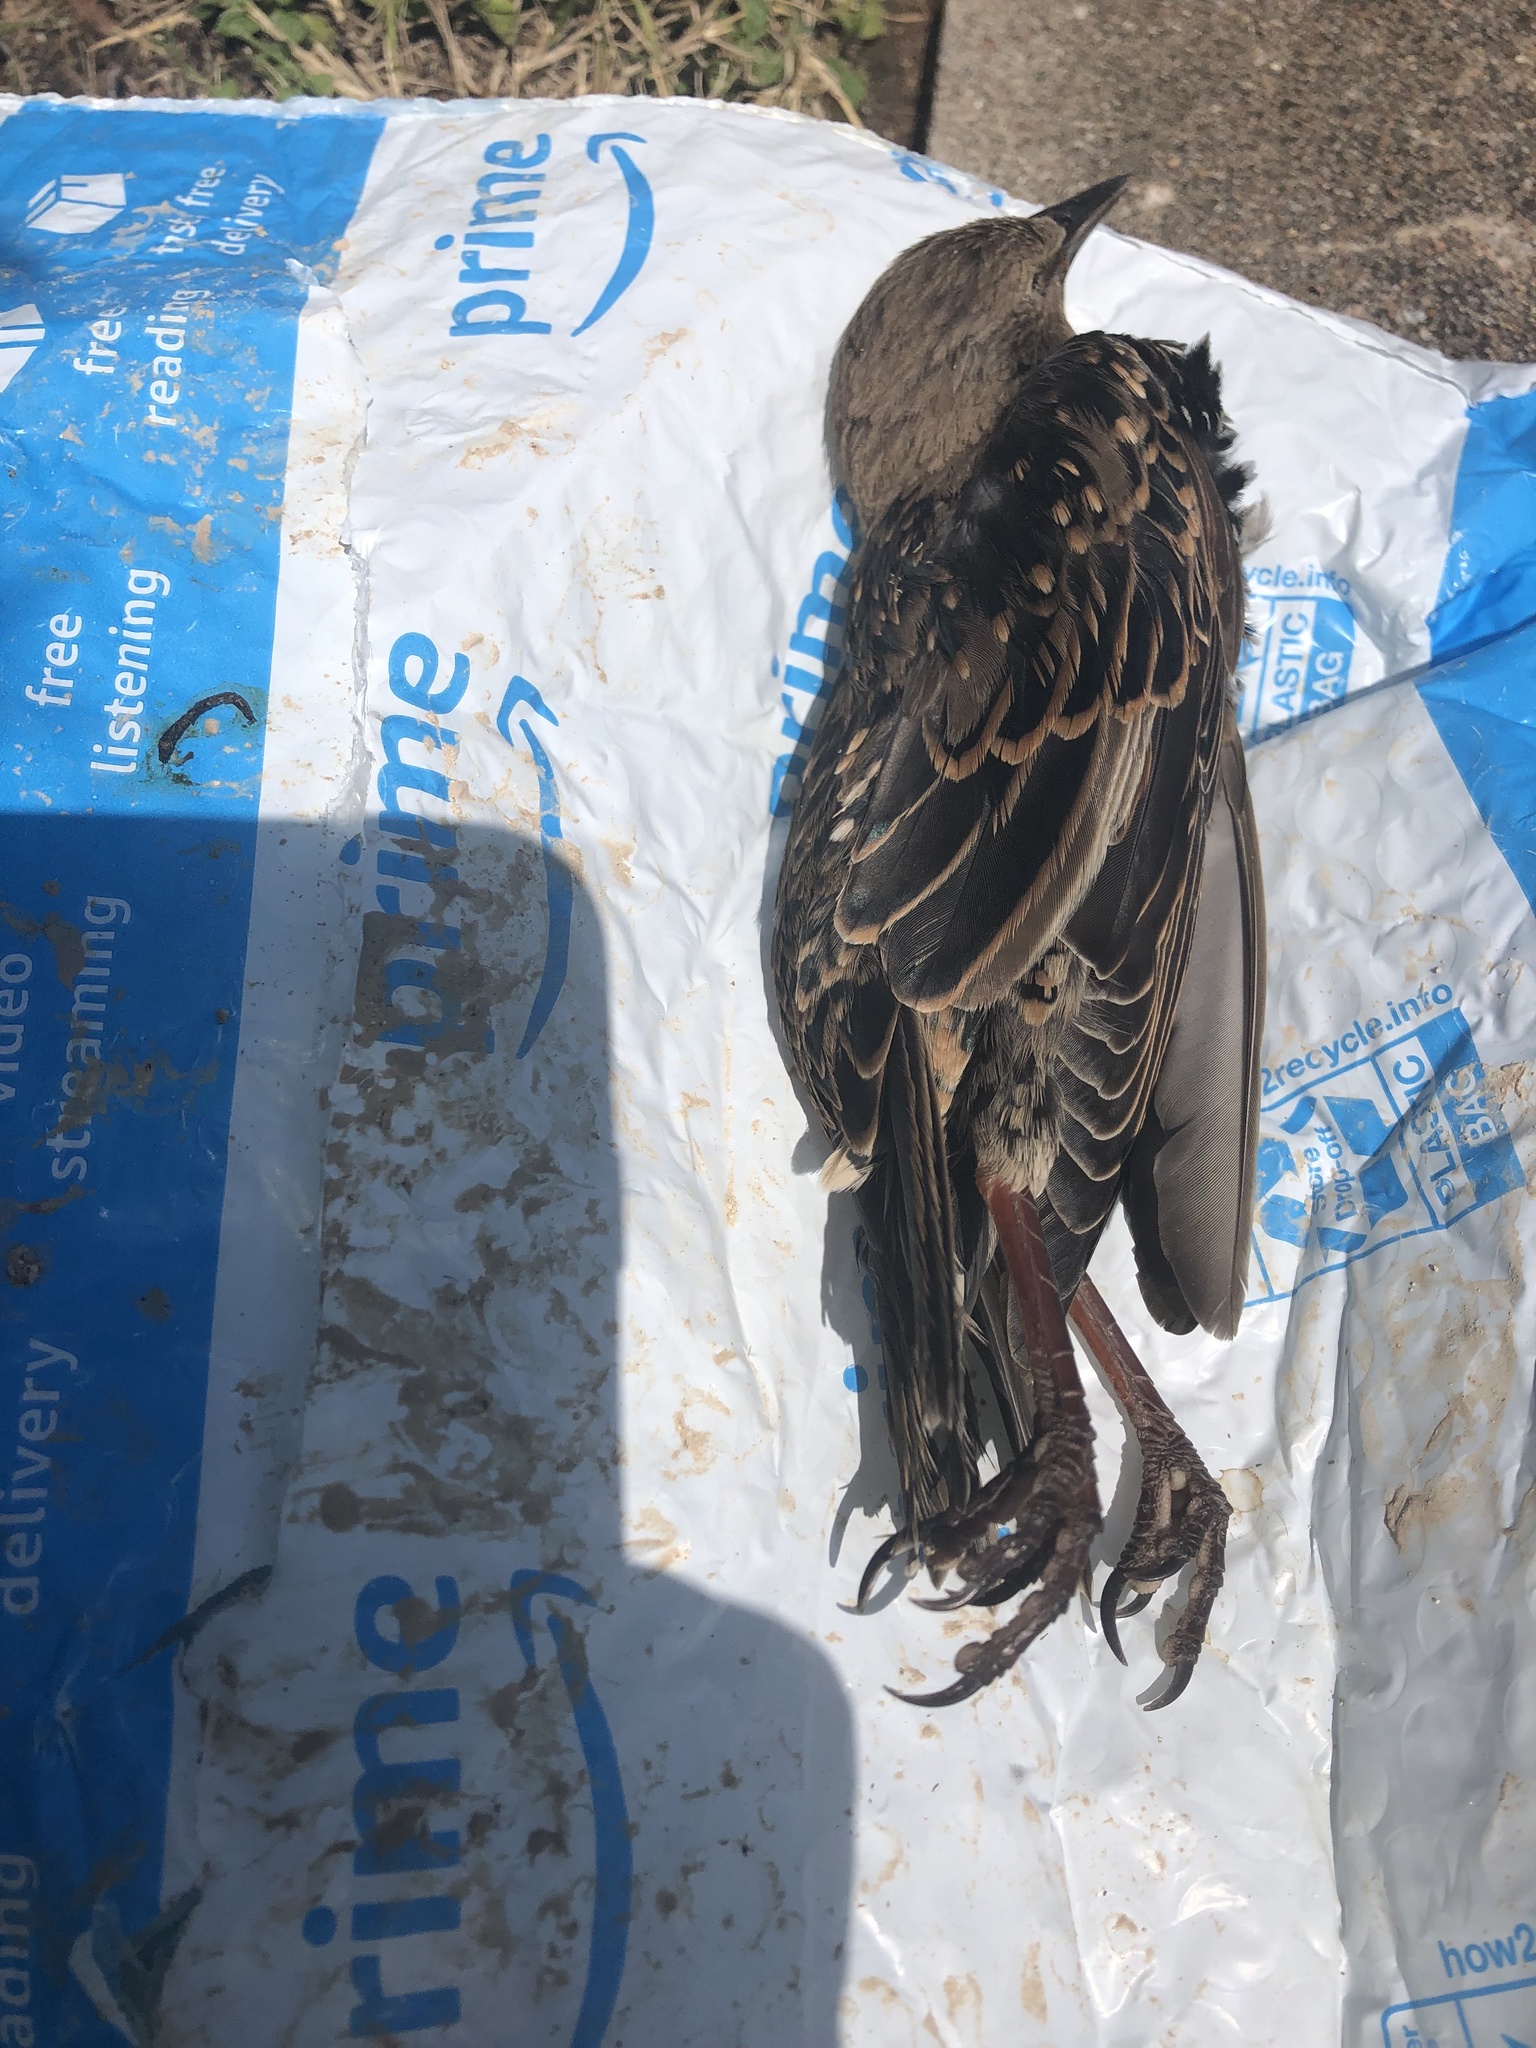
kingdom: Animalia
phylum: Chordata
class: Aves
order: Passeriformes
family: Sturnidae
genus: Sturnus
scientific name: Sturnus vulgaris
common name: Common starling
